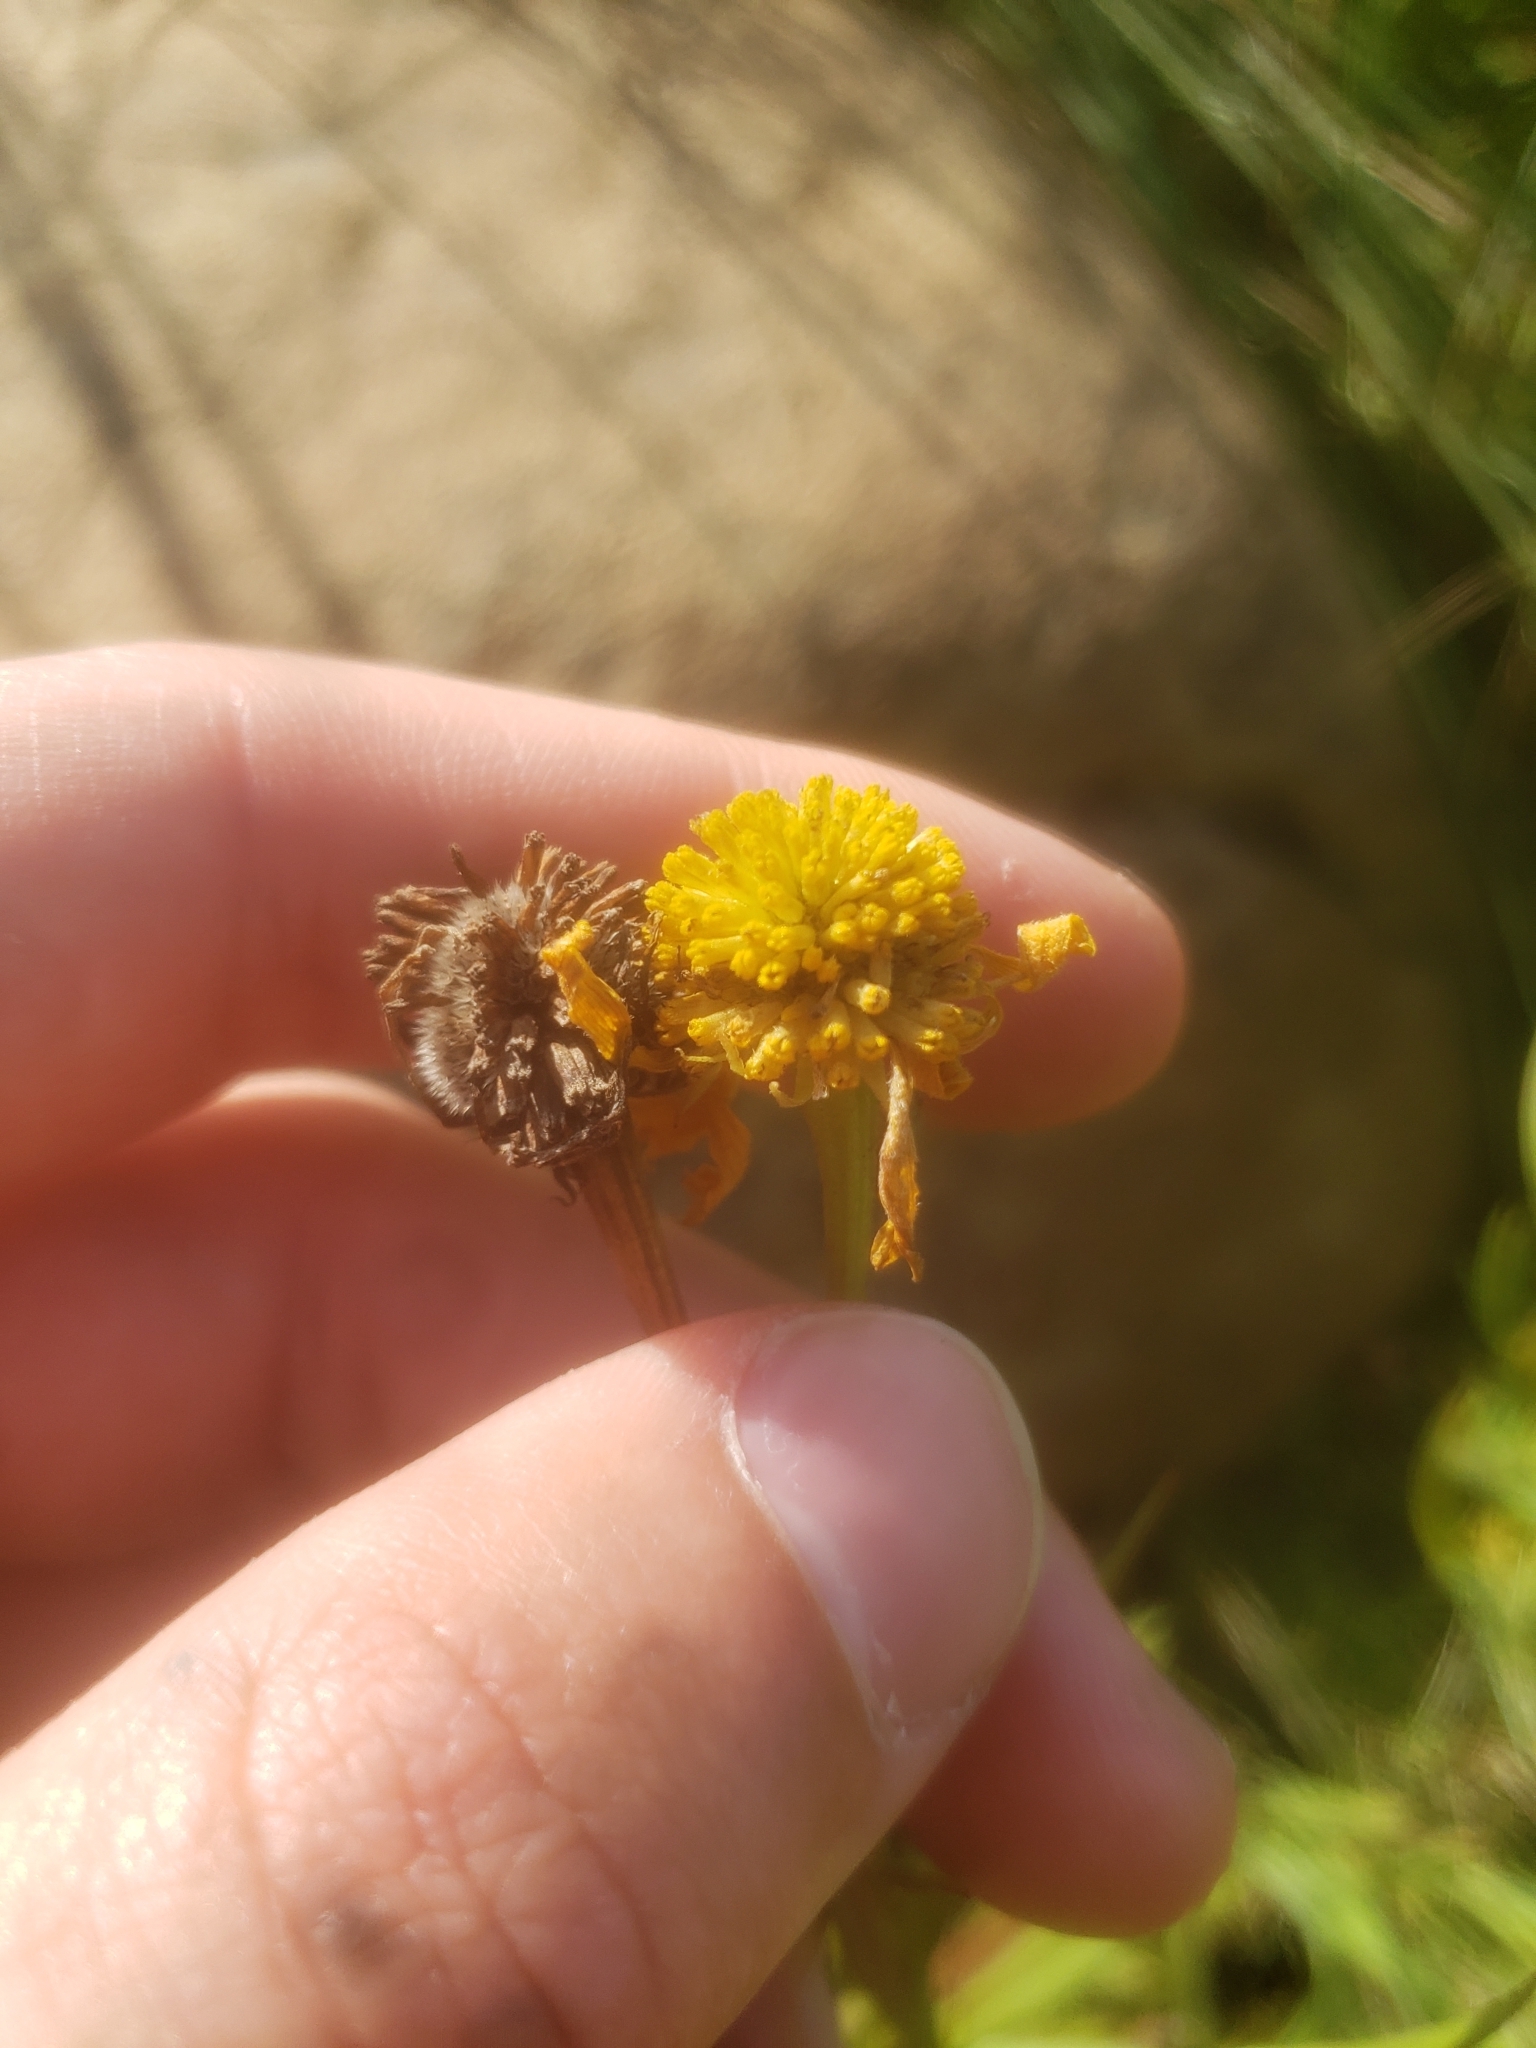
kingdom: Plantae
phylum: Tracheophyta
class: Magnoliopsida
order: Asterales
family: Asteraceae
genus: Helenium
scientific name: Helenium autumnale
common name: Sneezeweed
